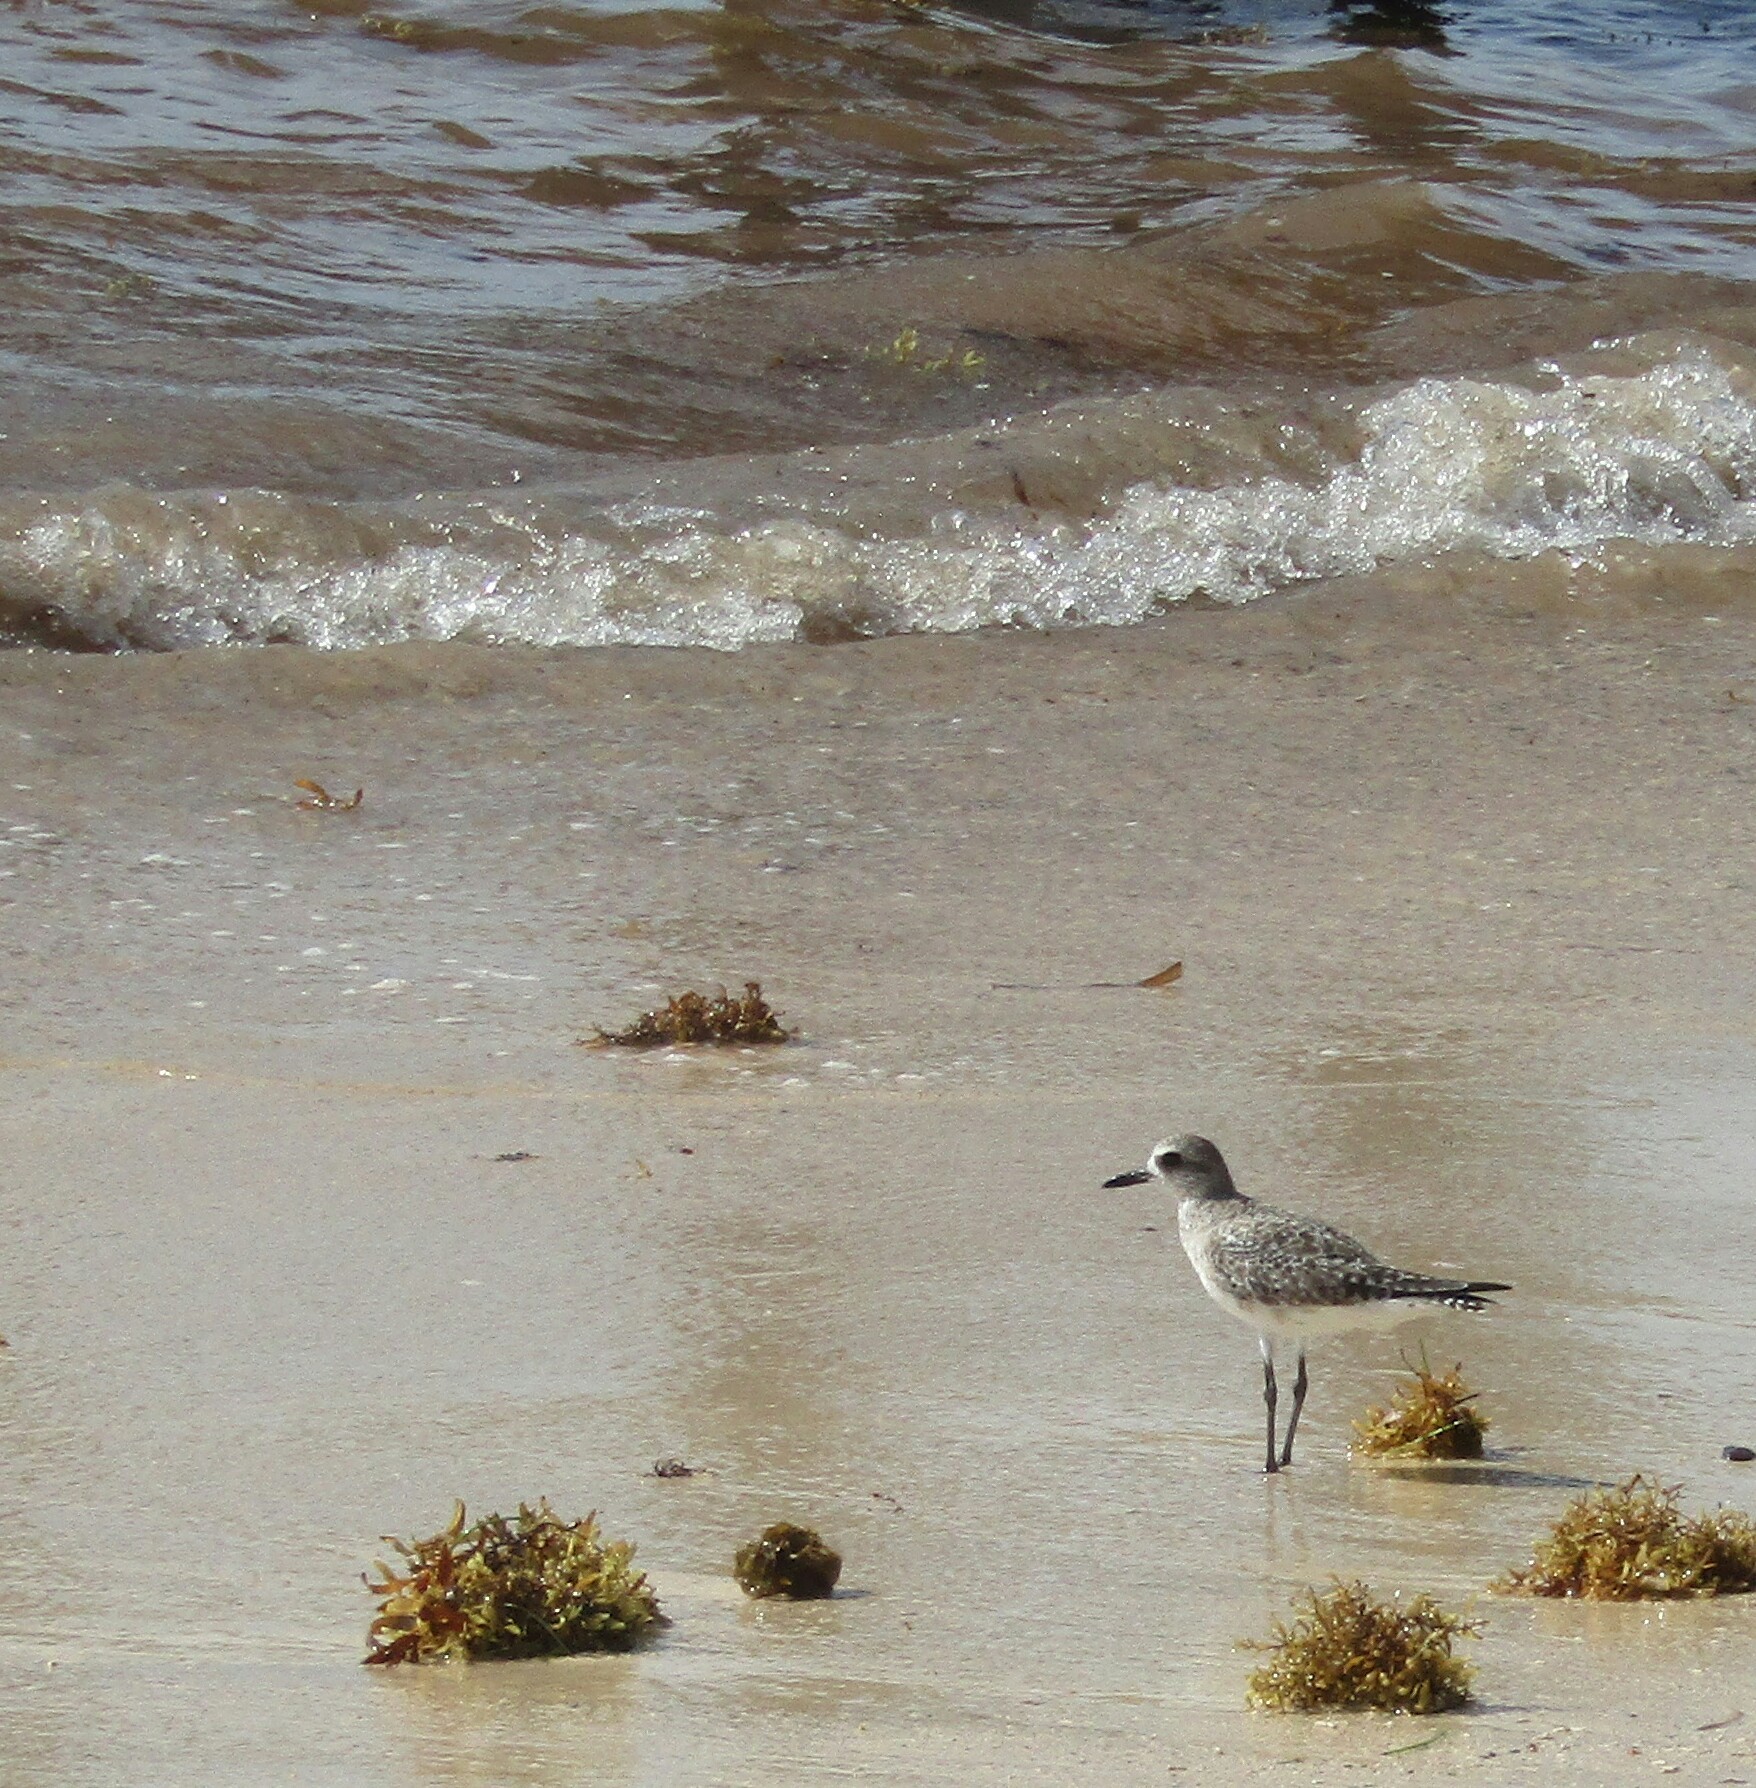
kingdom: Animalia
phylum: Chordata
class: Aves
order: Charadriiformes
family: Charadriidae
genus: Pluvialis
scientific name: Pluvialis squatarola
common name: Grey plover
